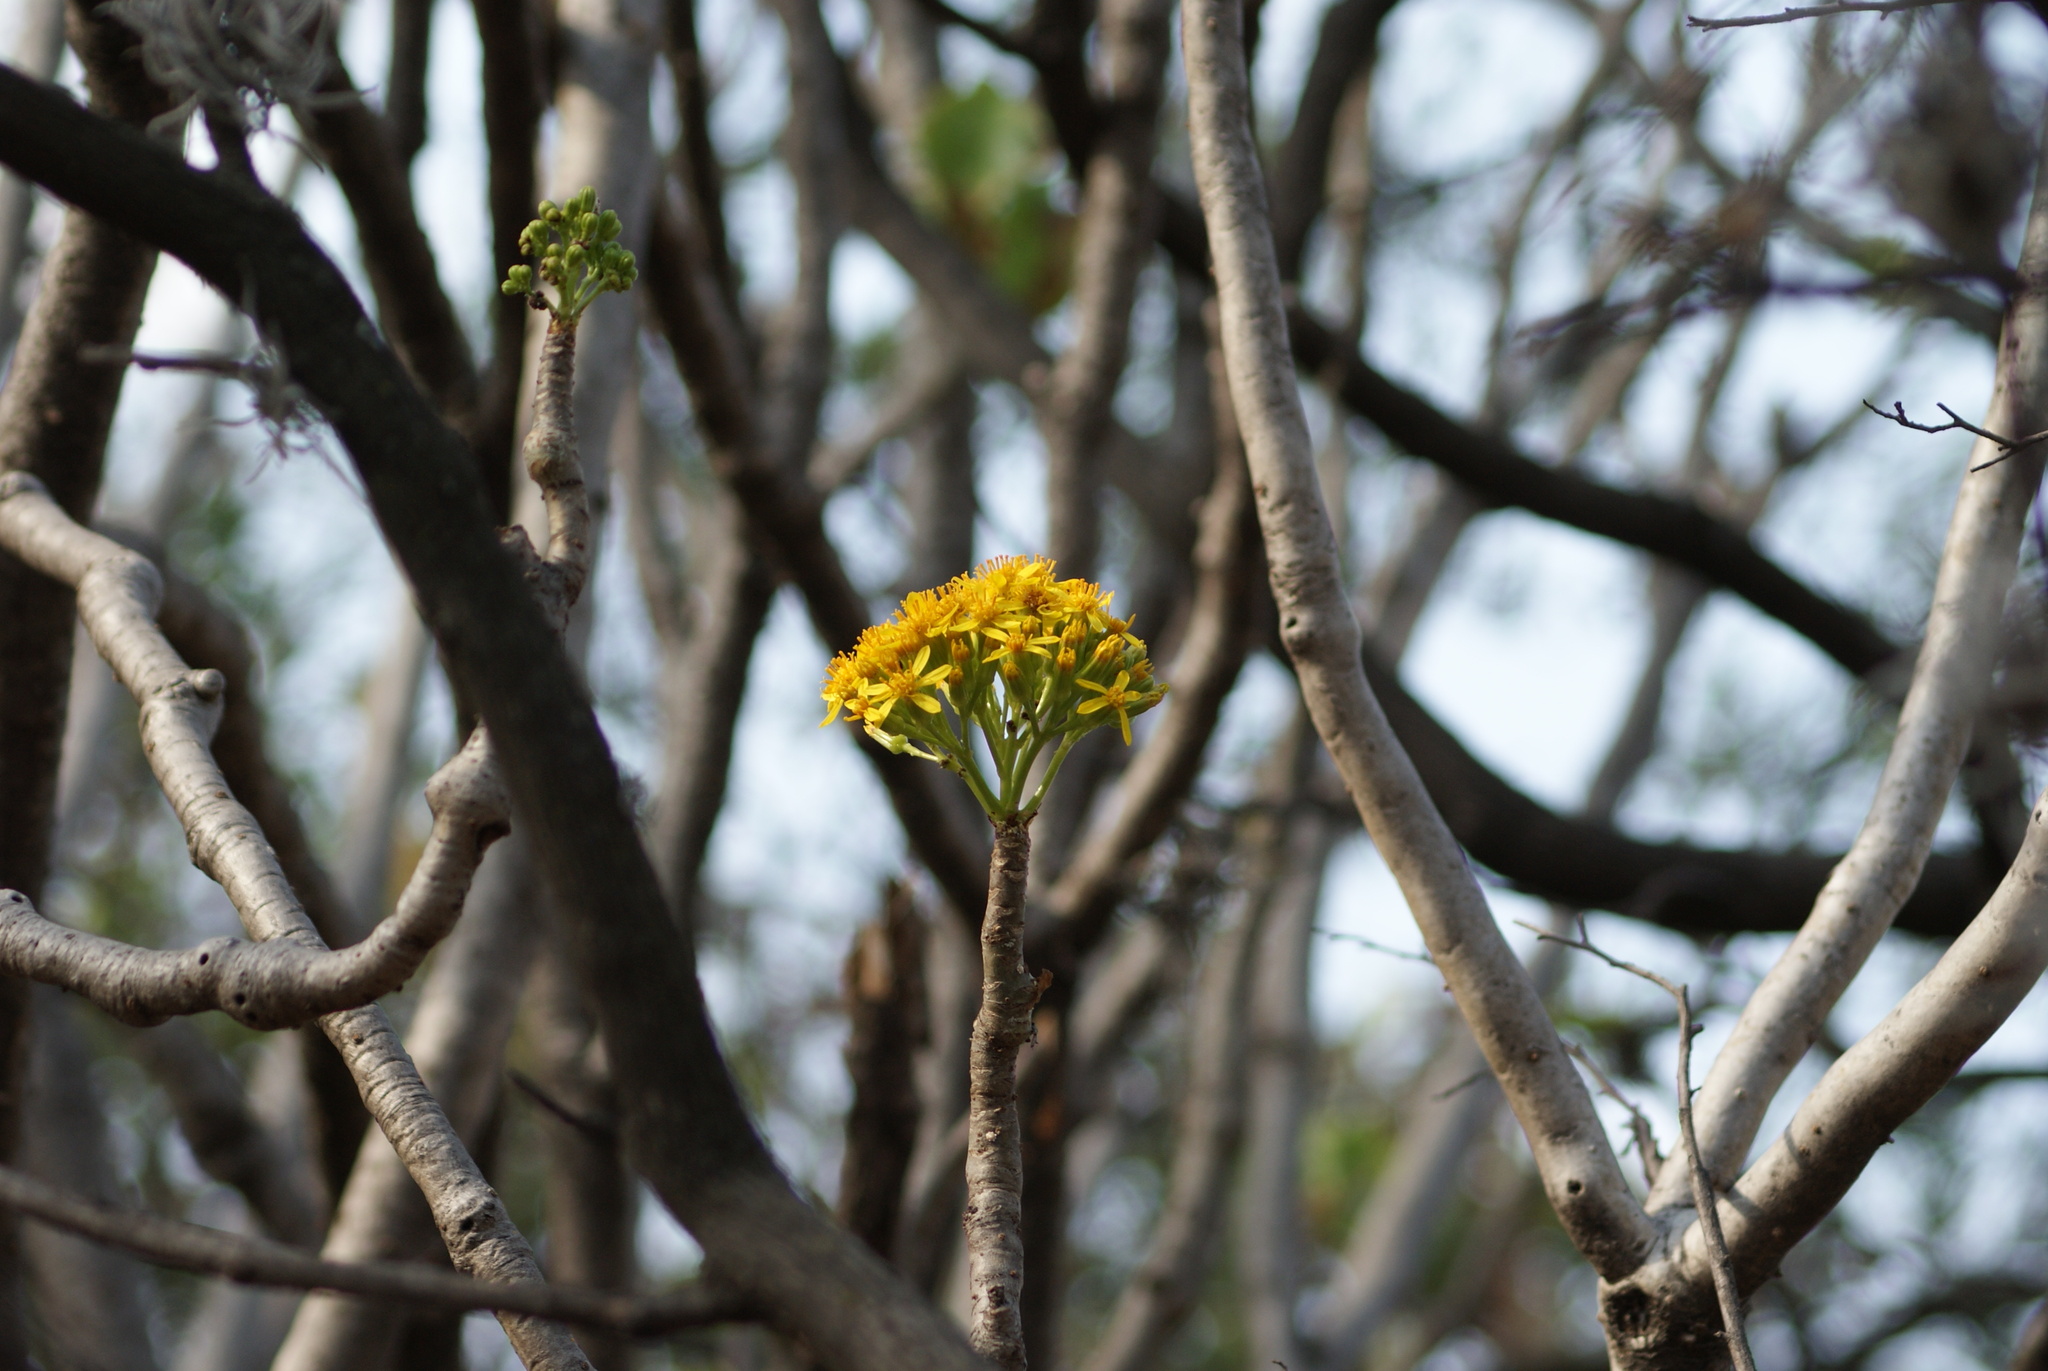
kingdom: Plantae
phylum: Tracheophyta
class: Magnoliopsida
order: Asterales
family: Asteraceae
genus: Pittocaulon
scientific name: Pittocaulon praecox
